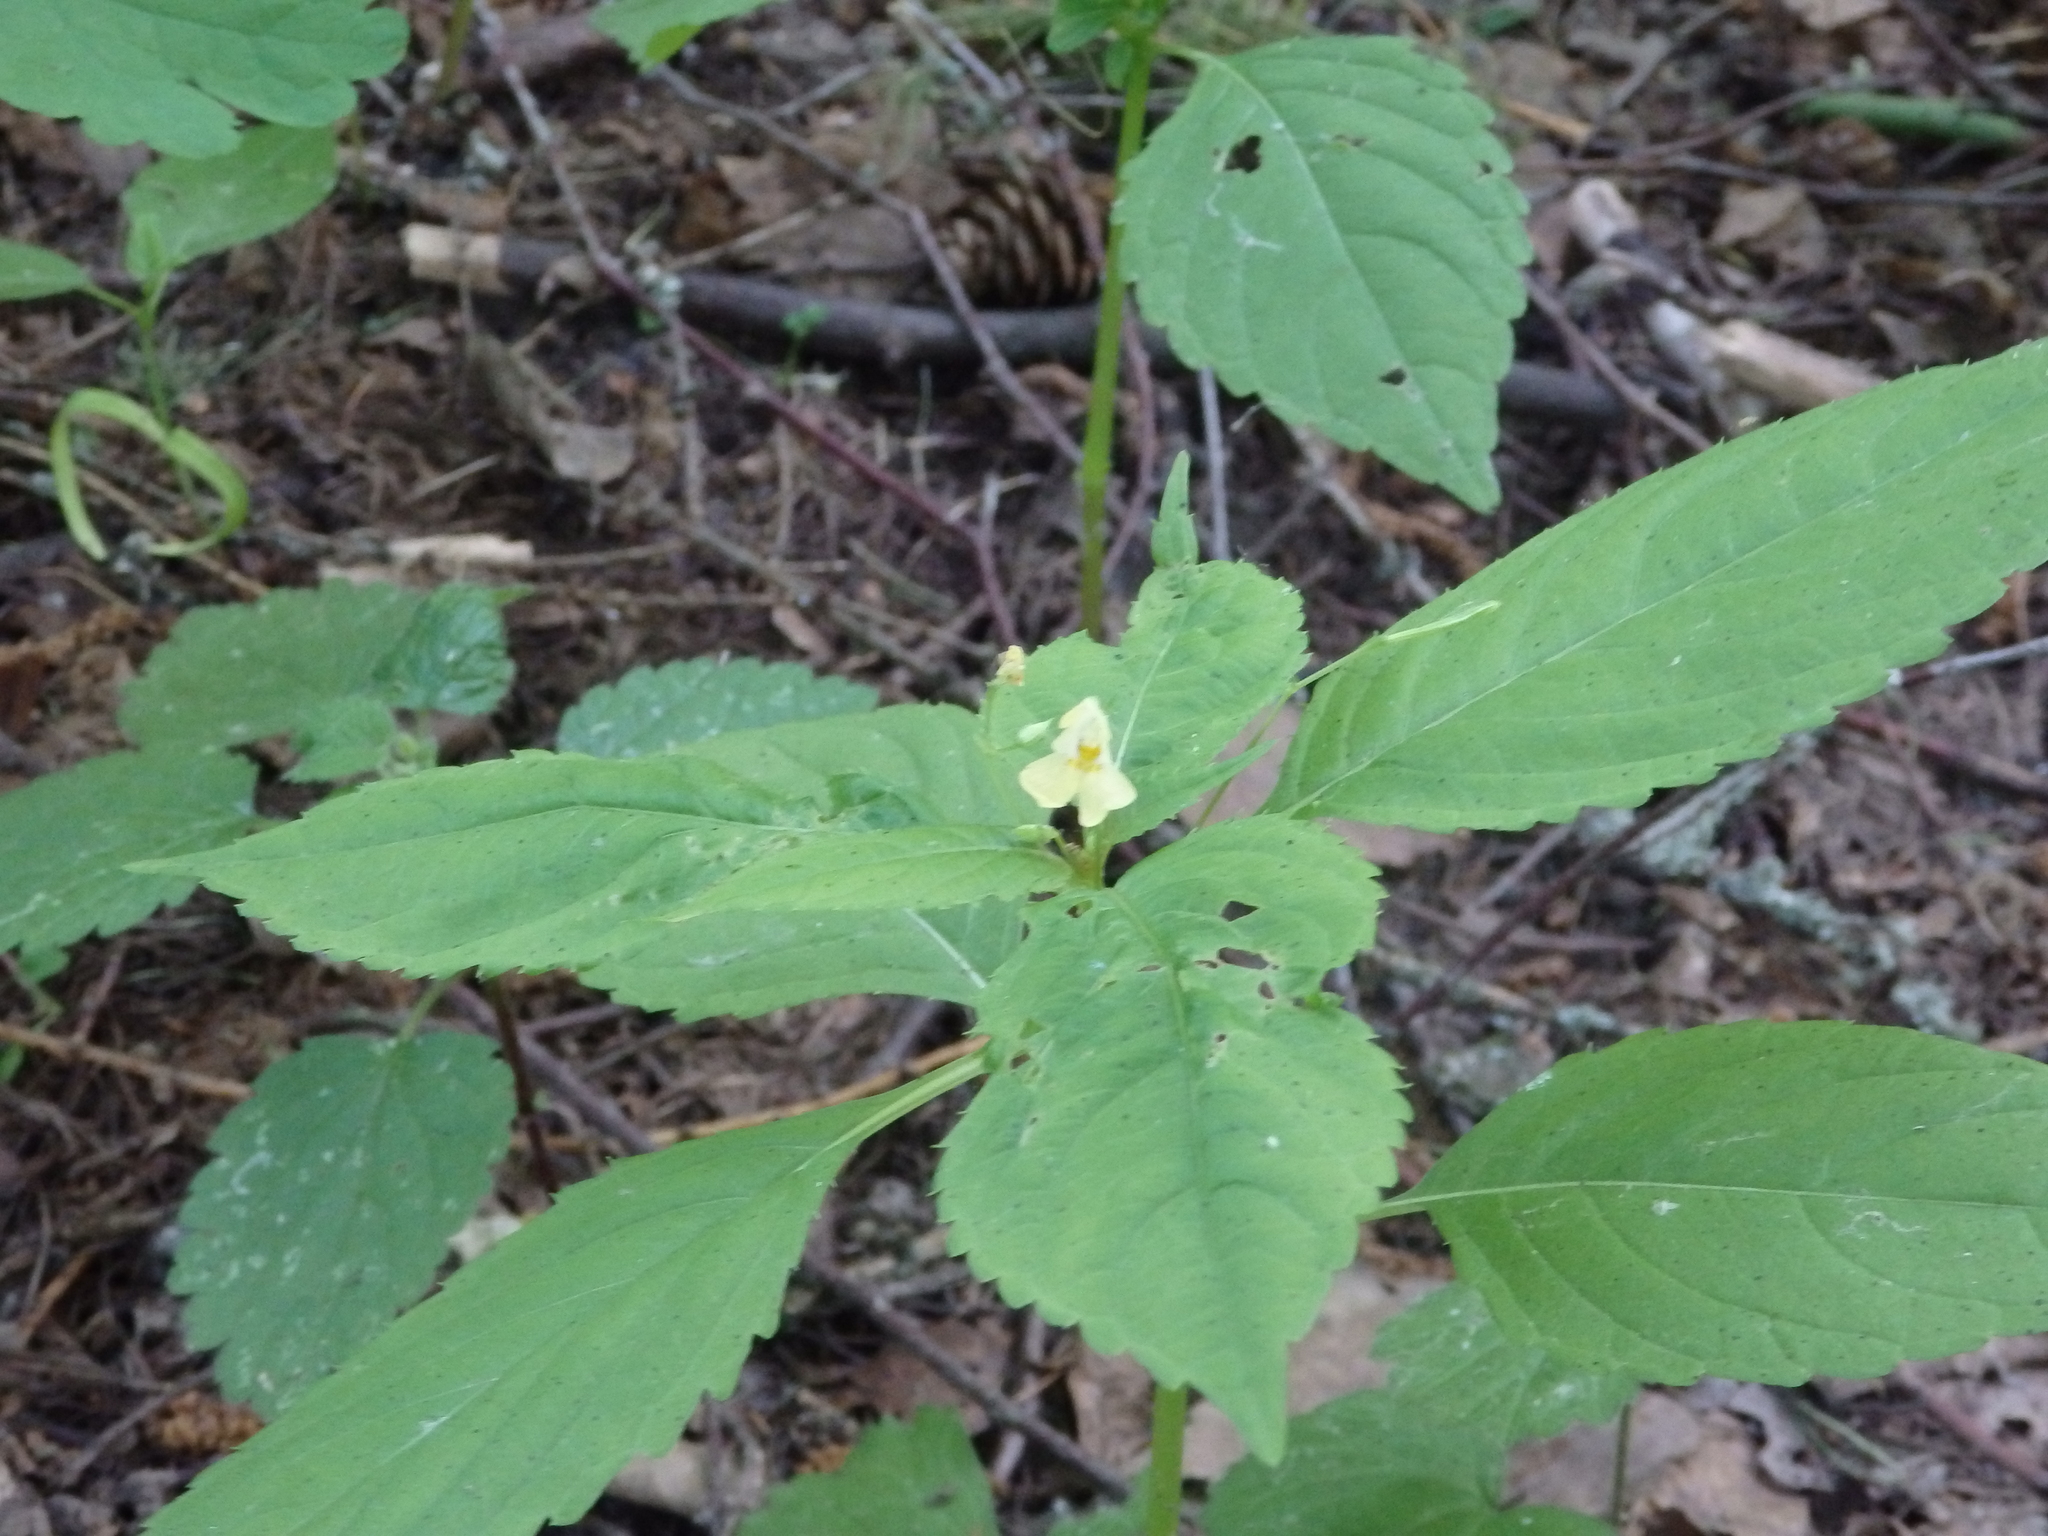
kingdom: Plantae
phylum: Tracheophyta
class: Magnoliopsida
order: Ericales
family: Balsaminaceae
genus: Impatiens
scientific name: Impatiens parviflora
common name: Small balsam
